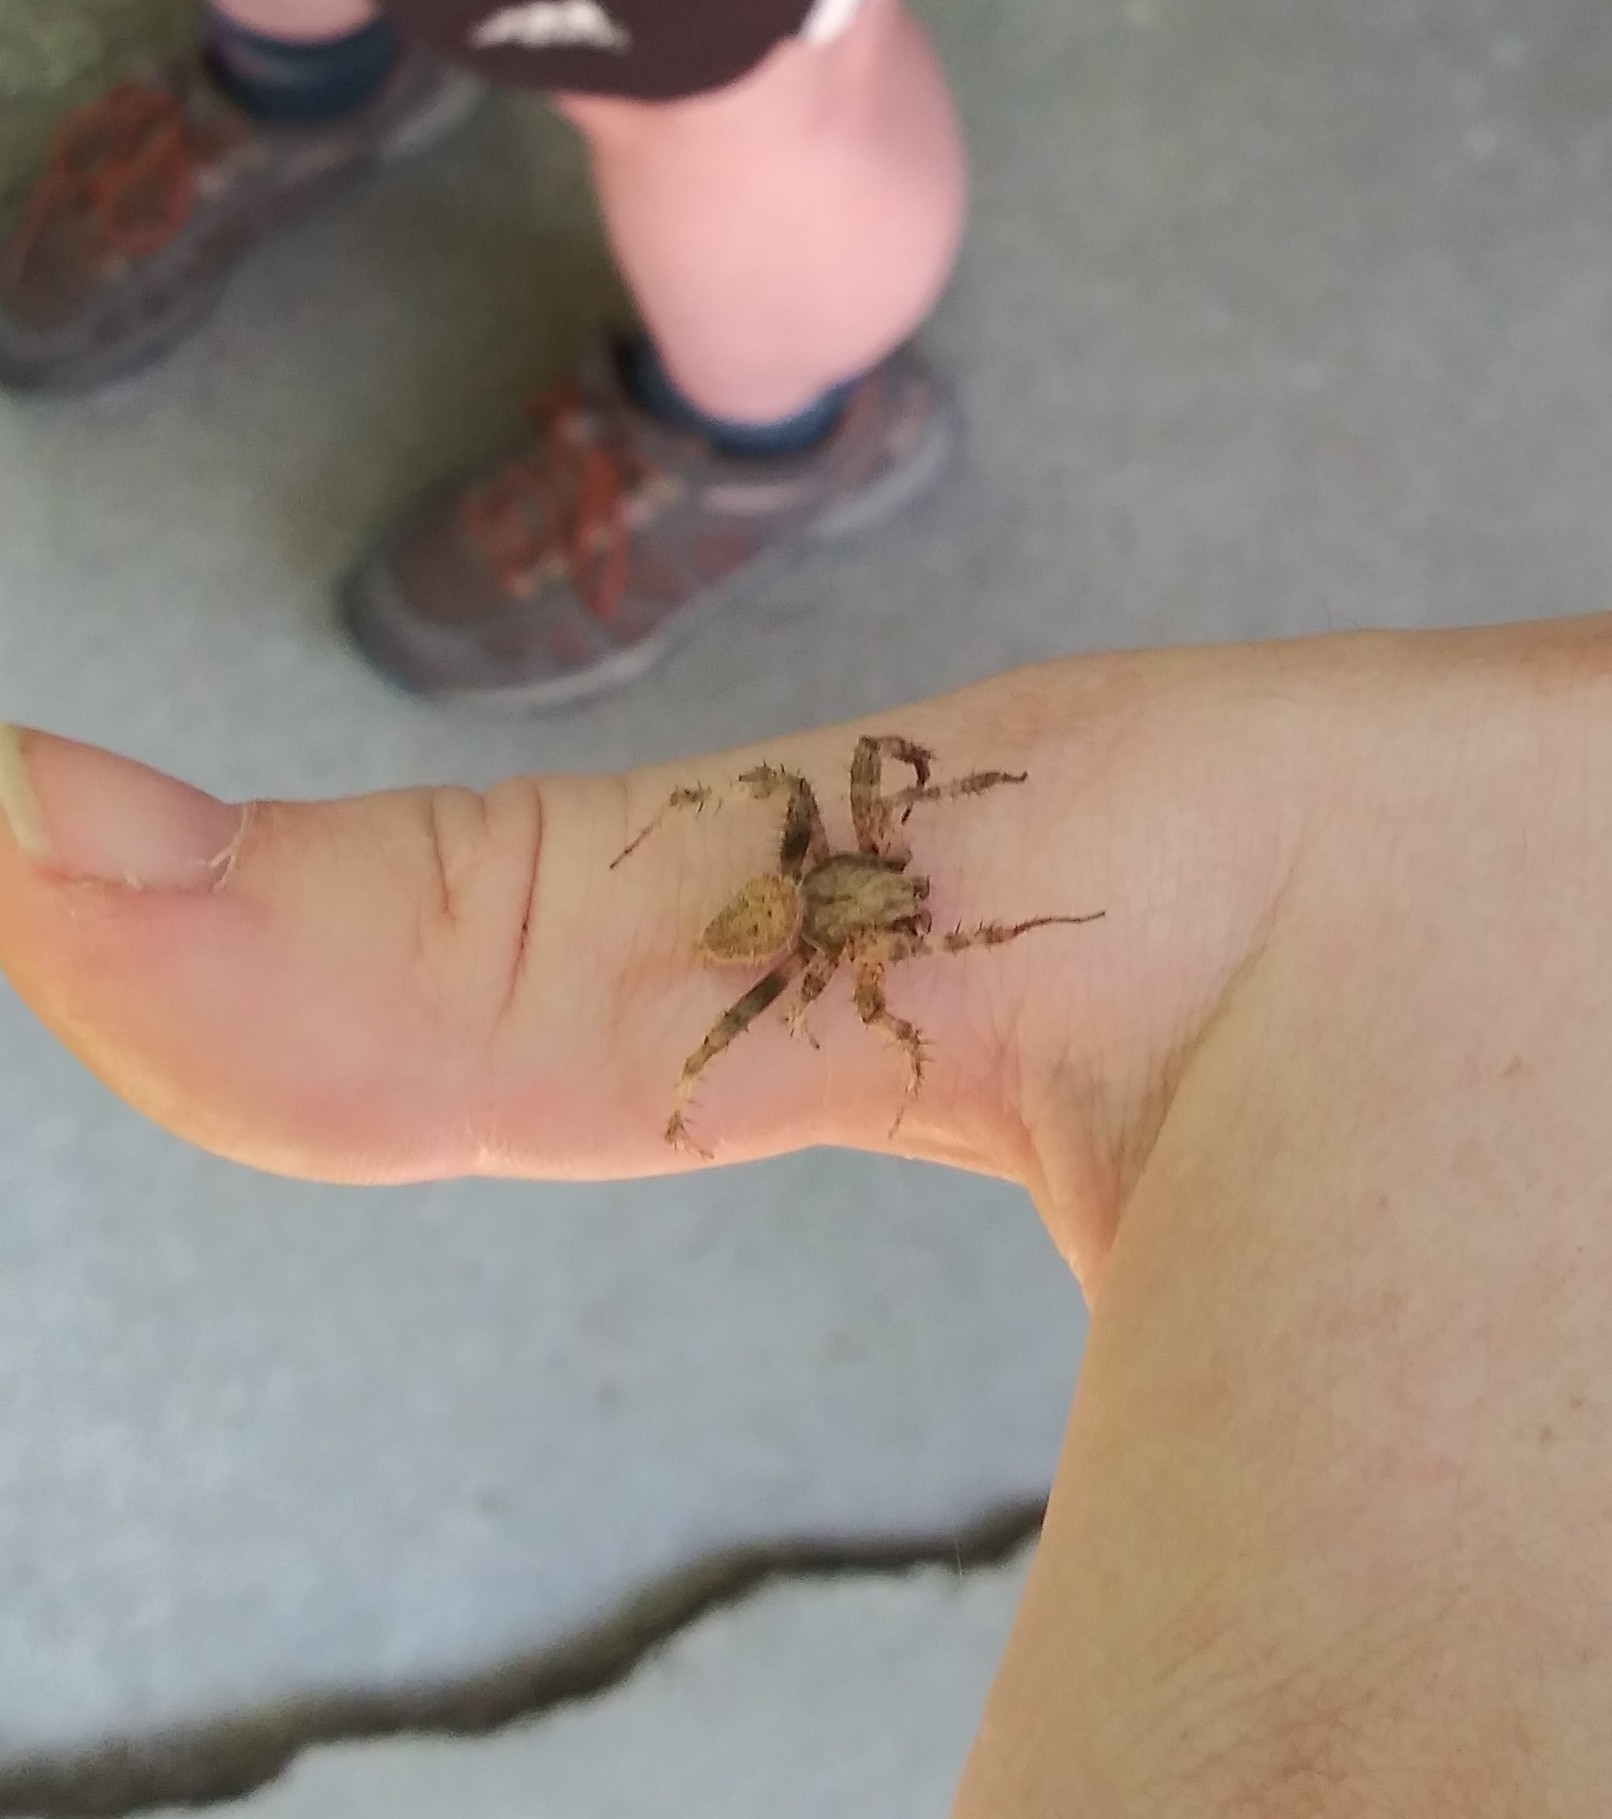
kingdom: Animalia
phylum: Arthropoda
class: Arachnida
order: Araneae
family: Araneidae
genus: Neoscona
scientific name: Neoscona crucifera
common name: Spotted orbweaver
